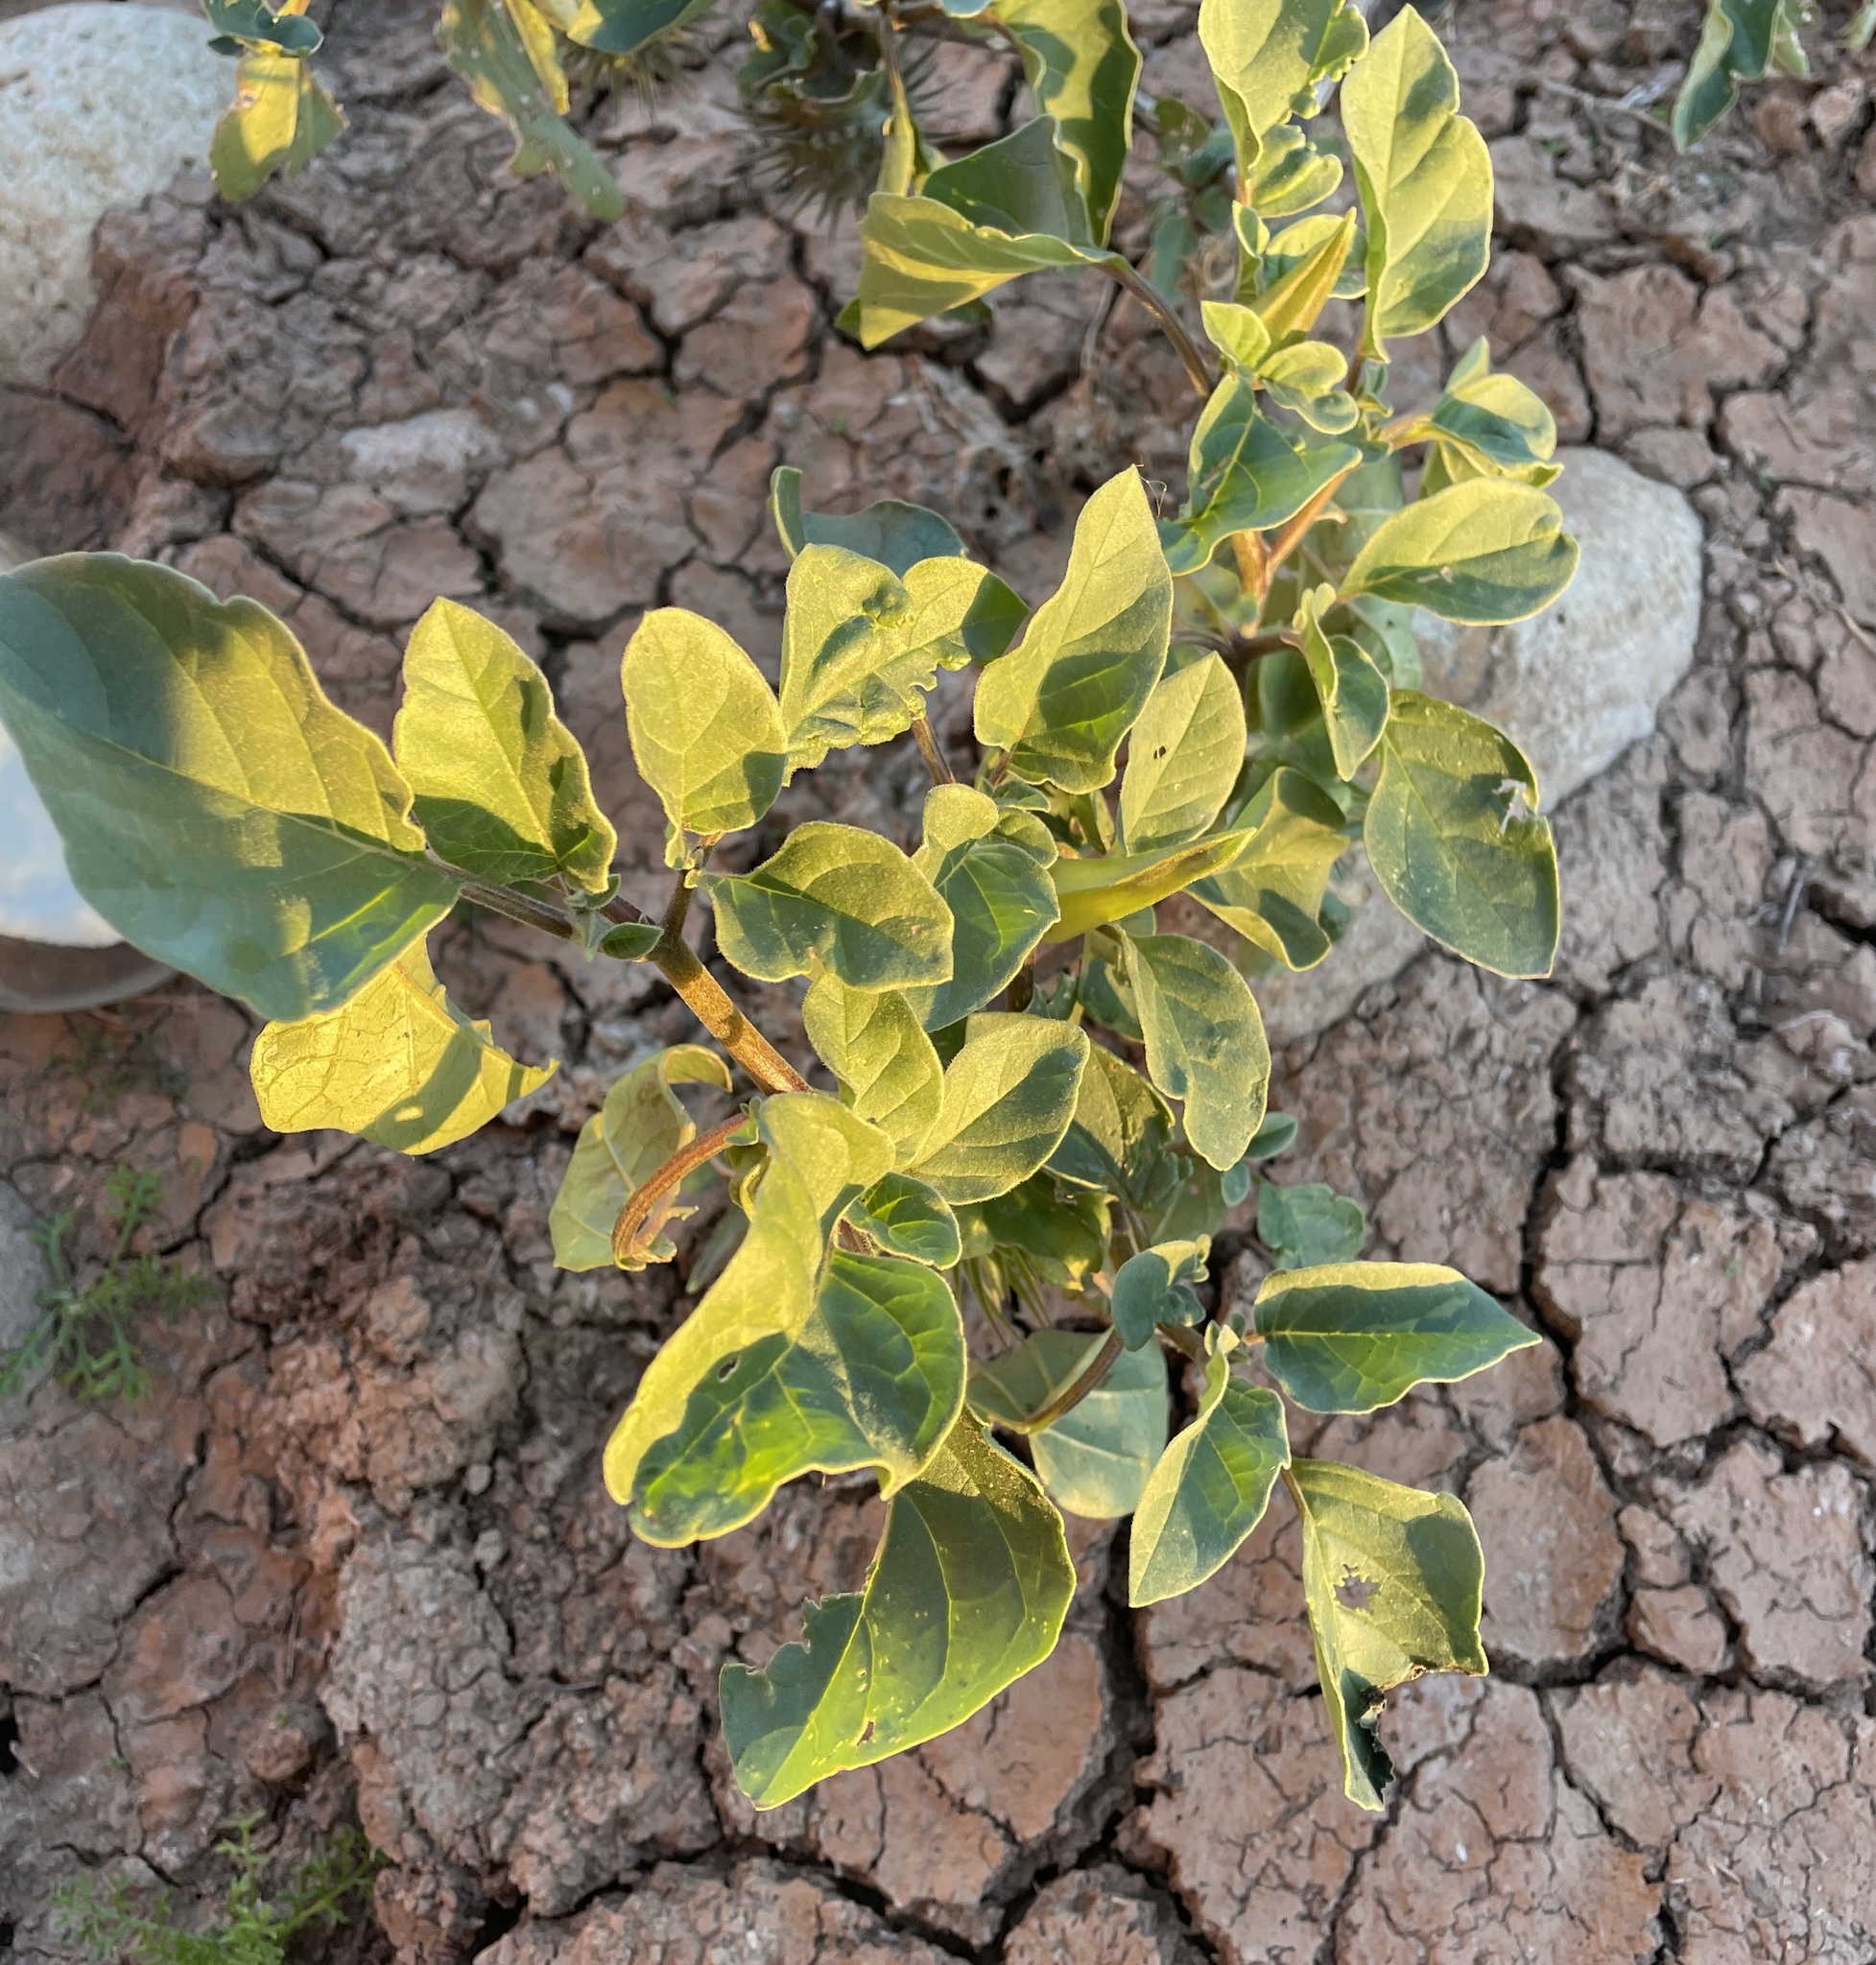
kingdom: Plantae
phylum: Tracheophyta
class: Magnoliopsida
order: Solanales
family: Solanaceae
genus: Datura
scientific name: Datura discolor
